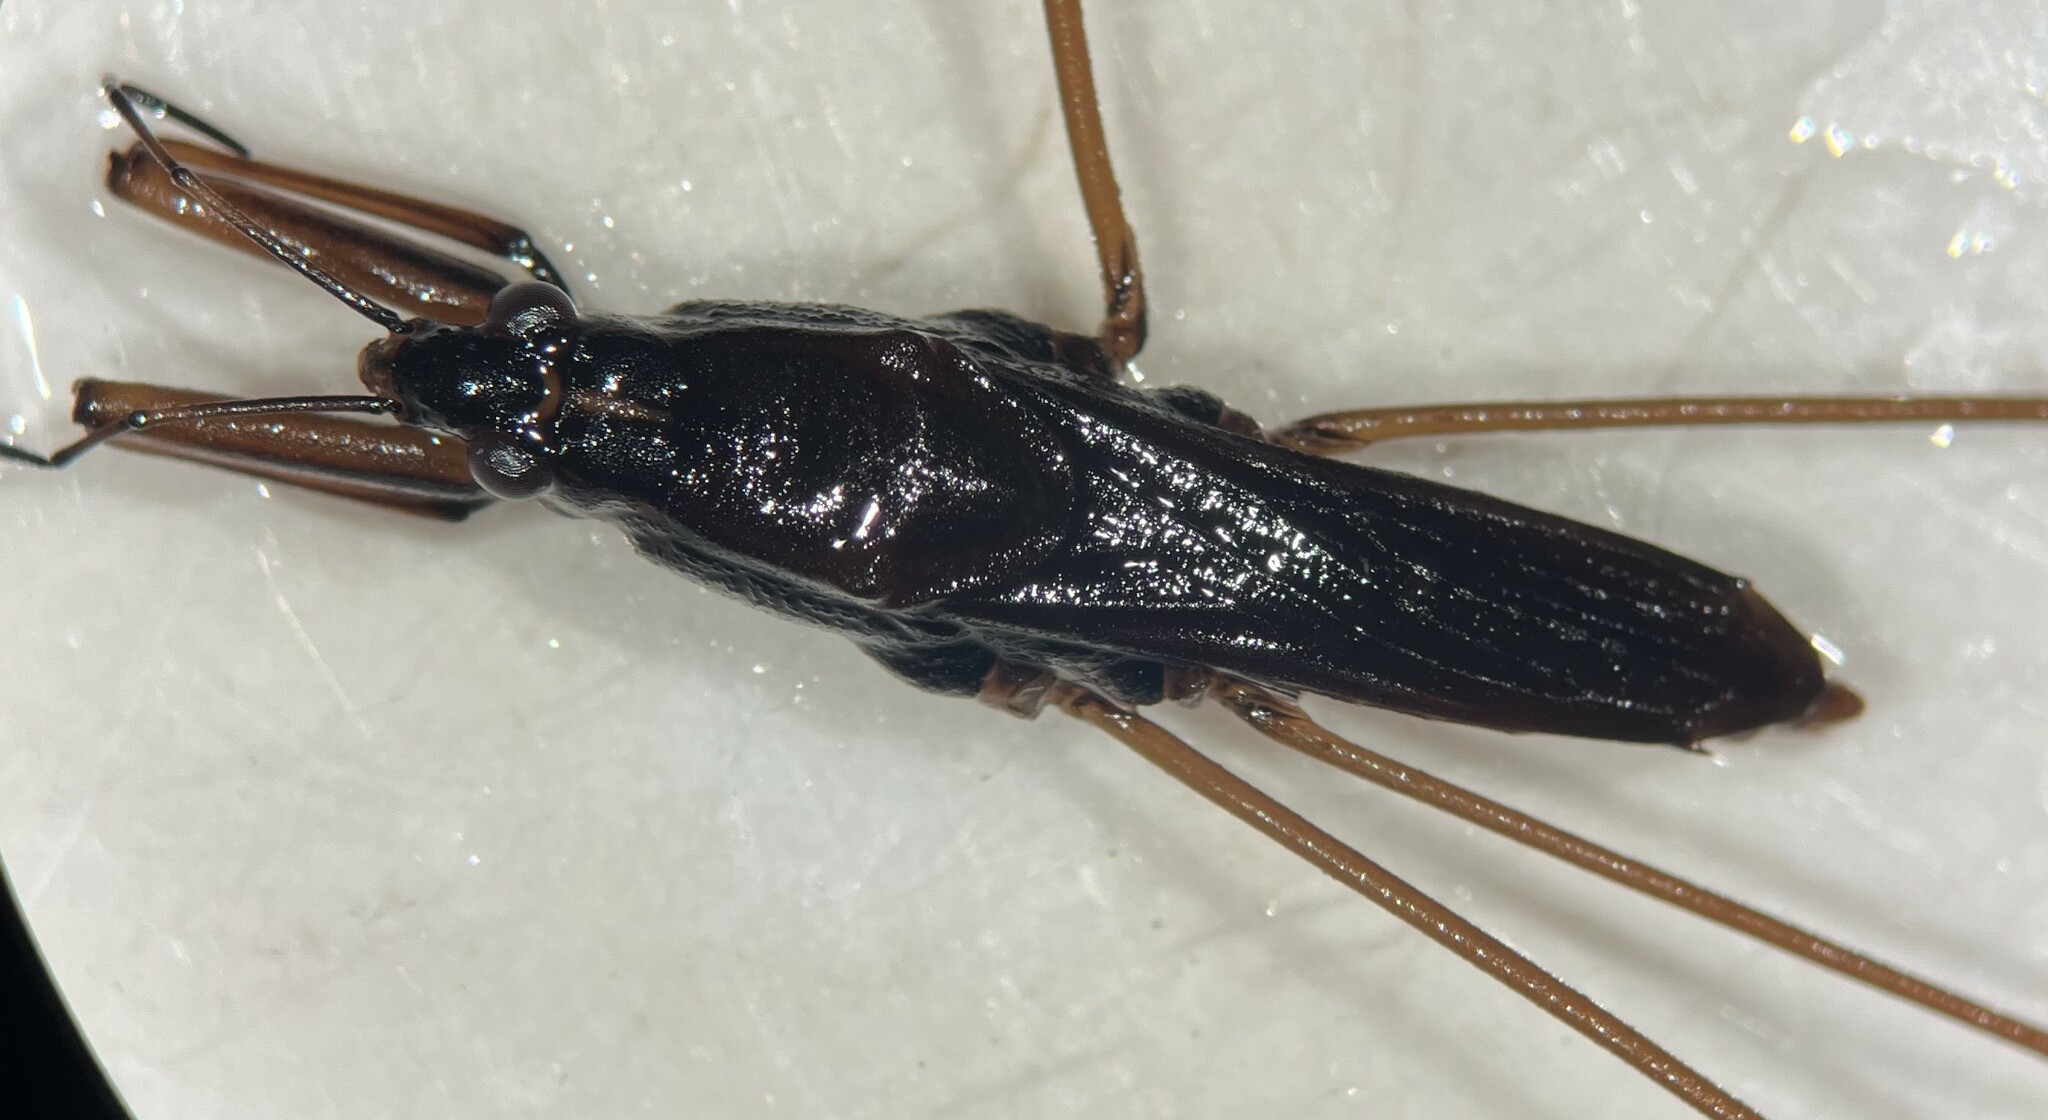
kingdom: Animalia
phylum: Arthropoda
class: Insecta
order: Hemiptera
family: Gerridae
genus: Aquarius
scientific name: Aquarius remigis
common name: Common water strider
